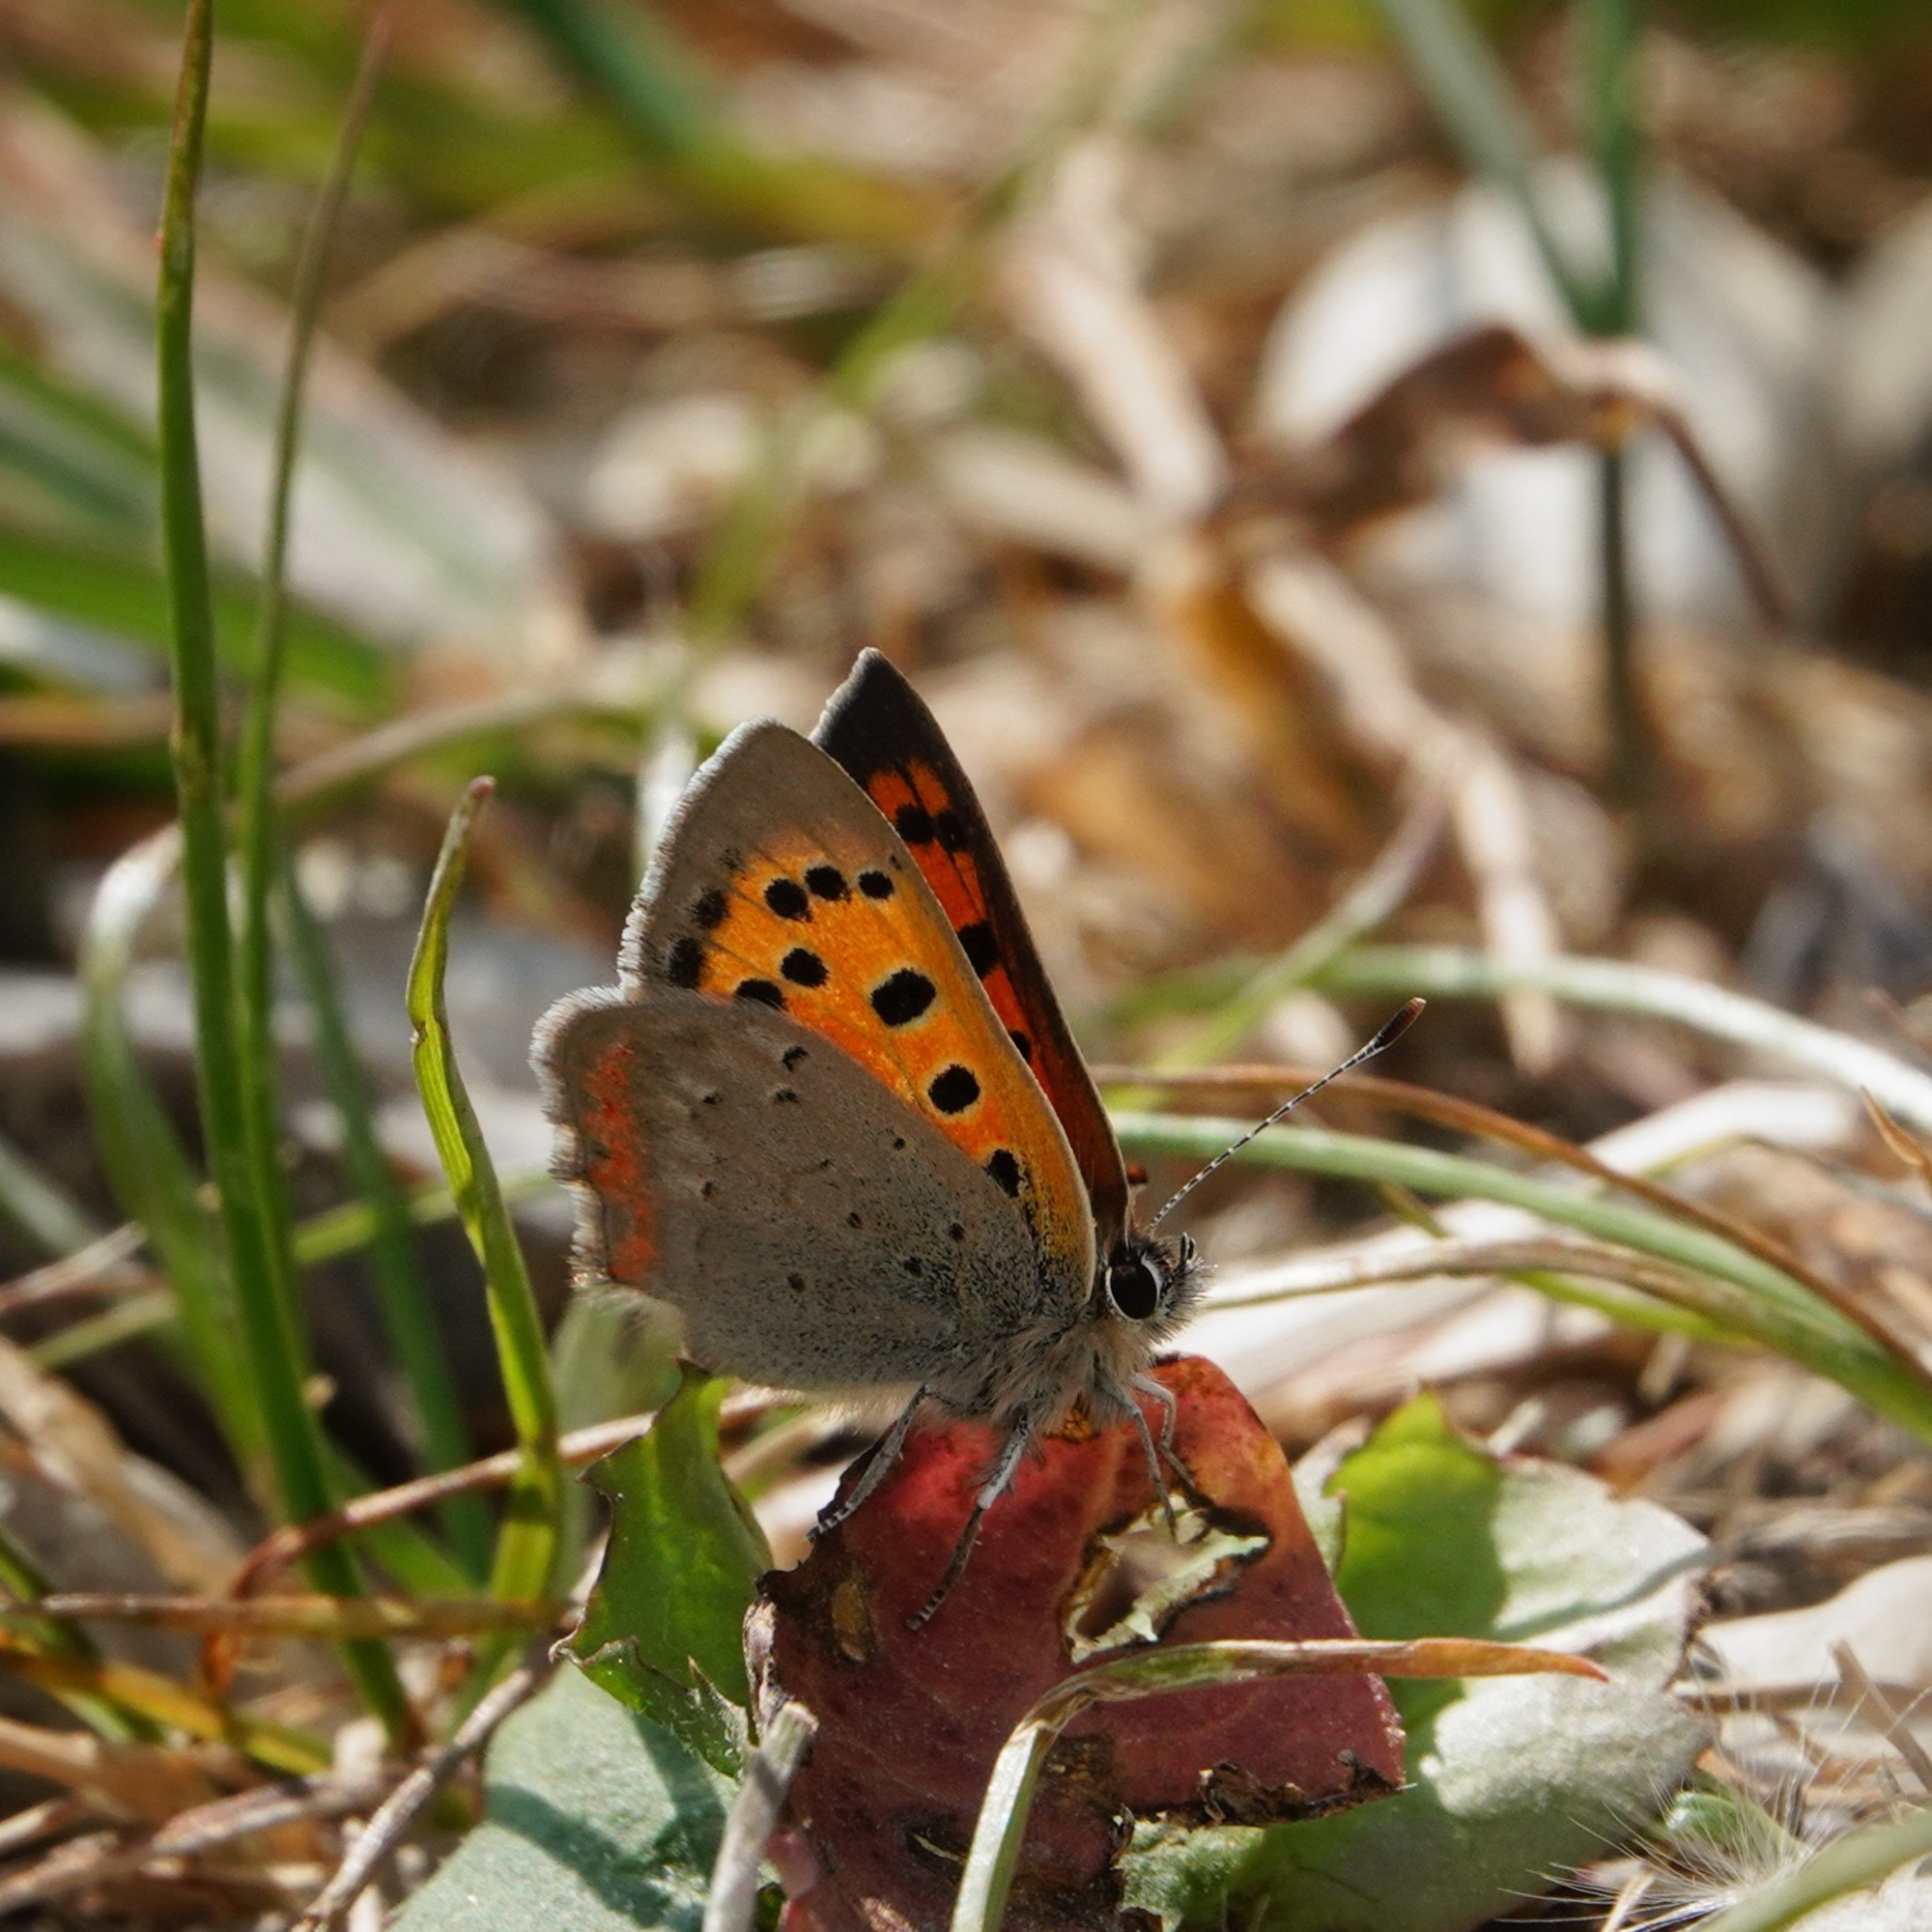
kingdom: Animalia
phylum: Arthropoda
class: Insecta
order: Lepidoptera
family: Lycaenidae
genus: Lycaena
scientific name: Lycaena phlaeas
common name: Small copper
